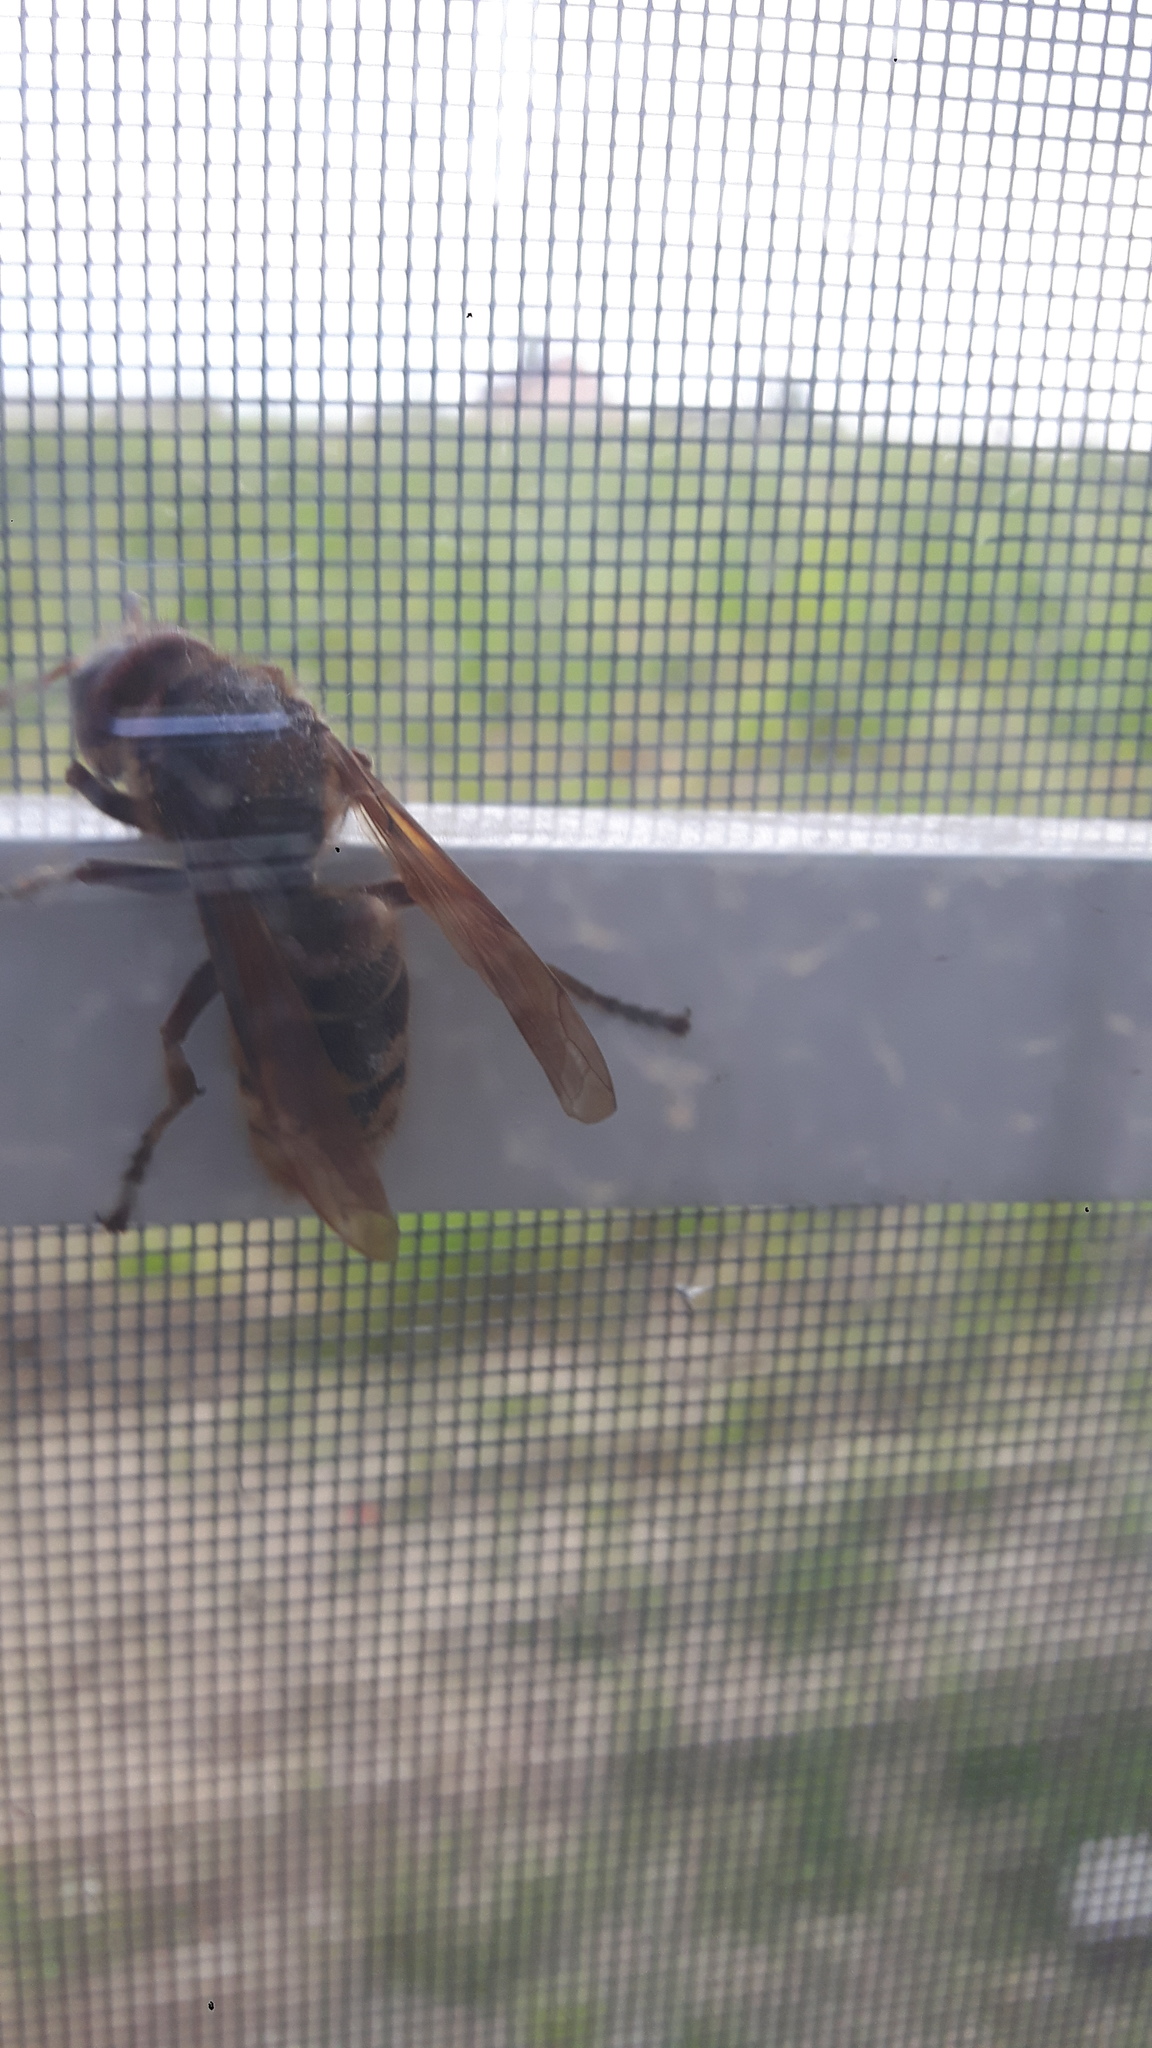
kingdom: Animalia
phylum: Arthropoda
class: Insecta
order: Hymenoptera
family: Vespidae
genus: Vespa
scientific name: Vespa crabro
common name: Hornet
